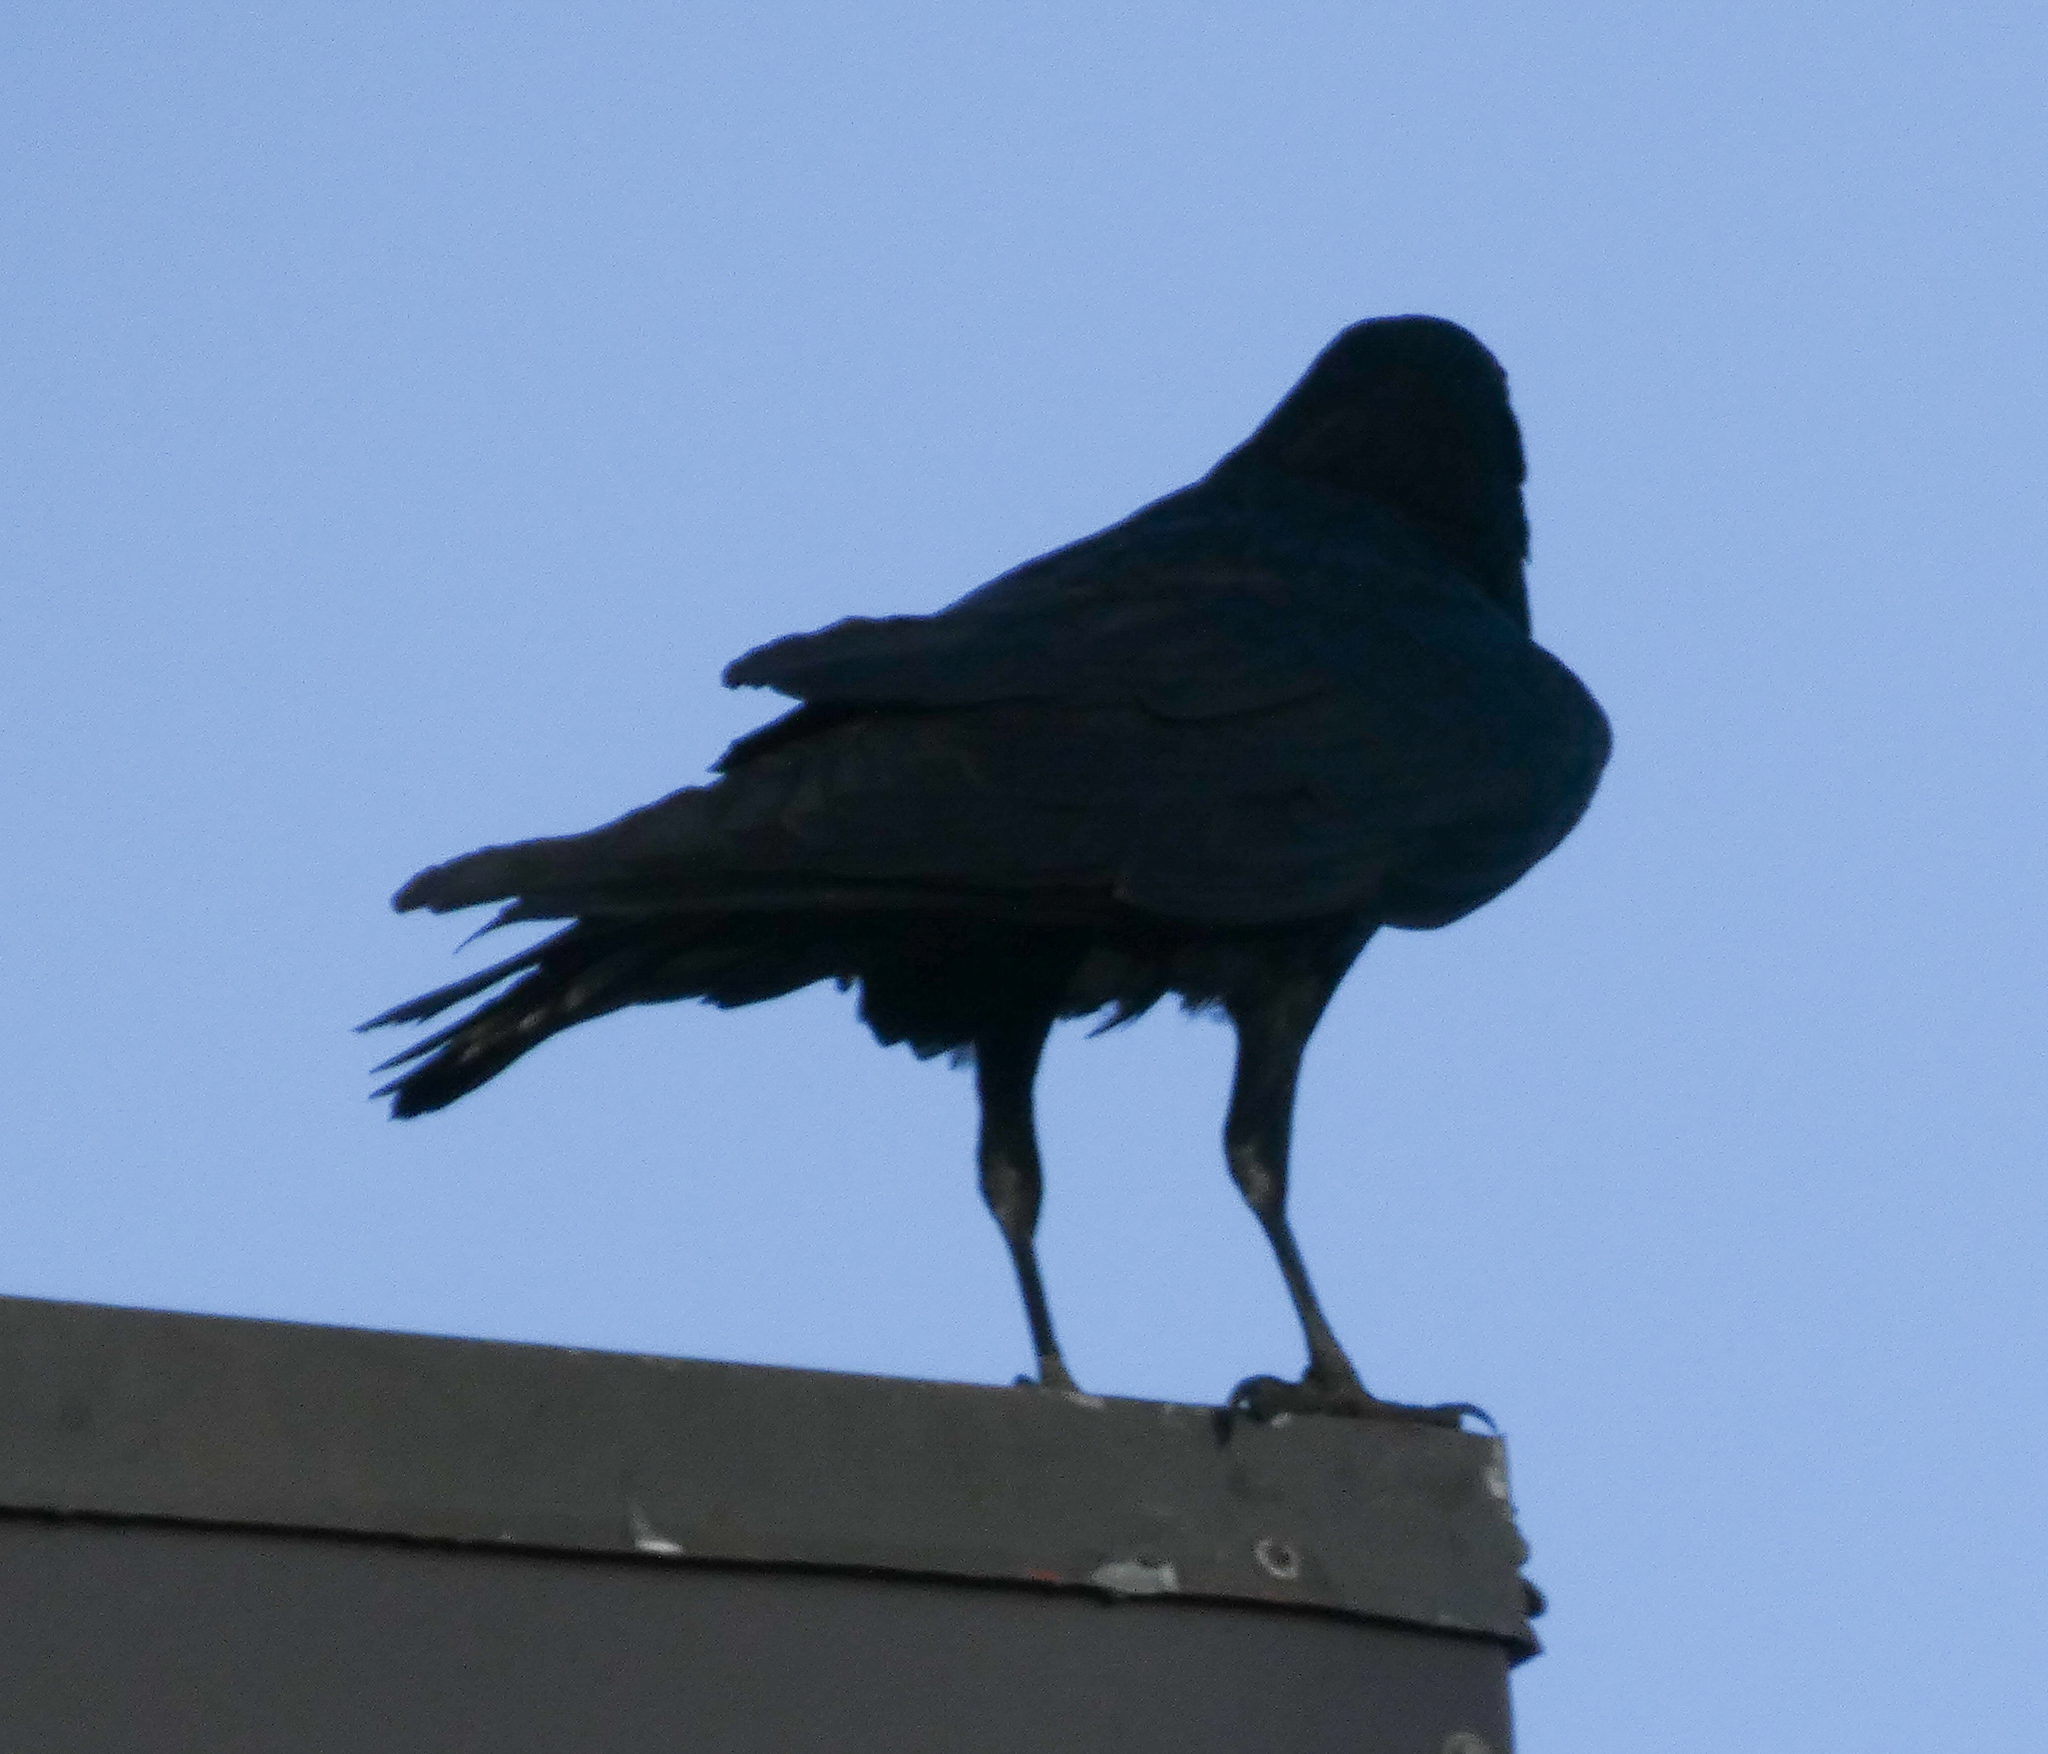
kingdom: Animalia
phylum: Chordata
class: Aves
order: Passeriformes
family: Corvidae
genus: Corvus
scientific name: Corvus corax
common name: Common raven
